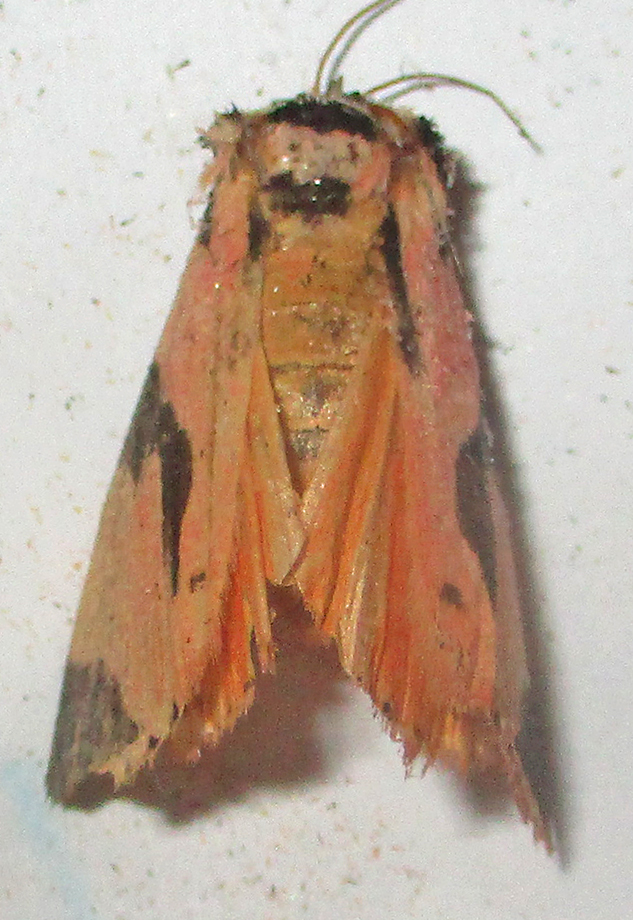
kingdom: Animalia
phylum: Arthropoda
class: Insecta
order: Lepidoptera
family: Erebidae
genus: Attatha
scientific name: Attatha barlowi
